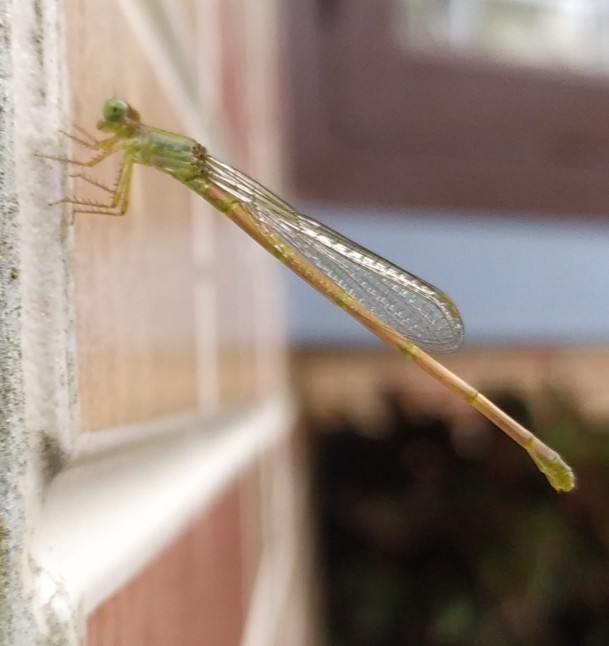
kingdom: Animalia
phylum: Arthropoda
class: Insecta
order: Odonata
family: Coenagrionidae
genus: Ceriagrion
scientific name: Ceriagrion coromandelianum
